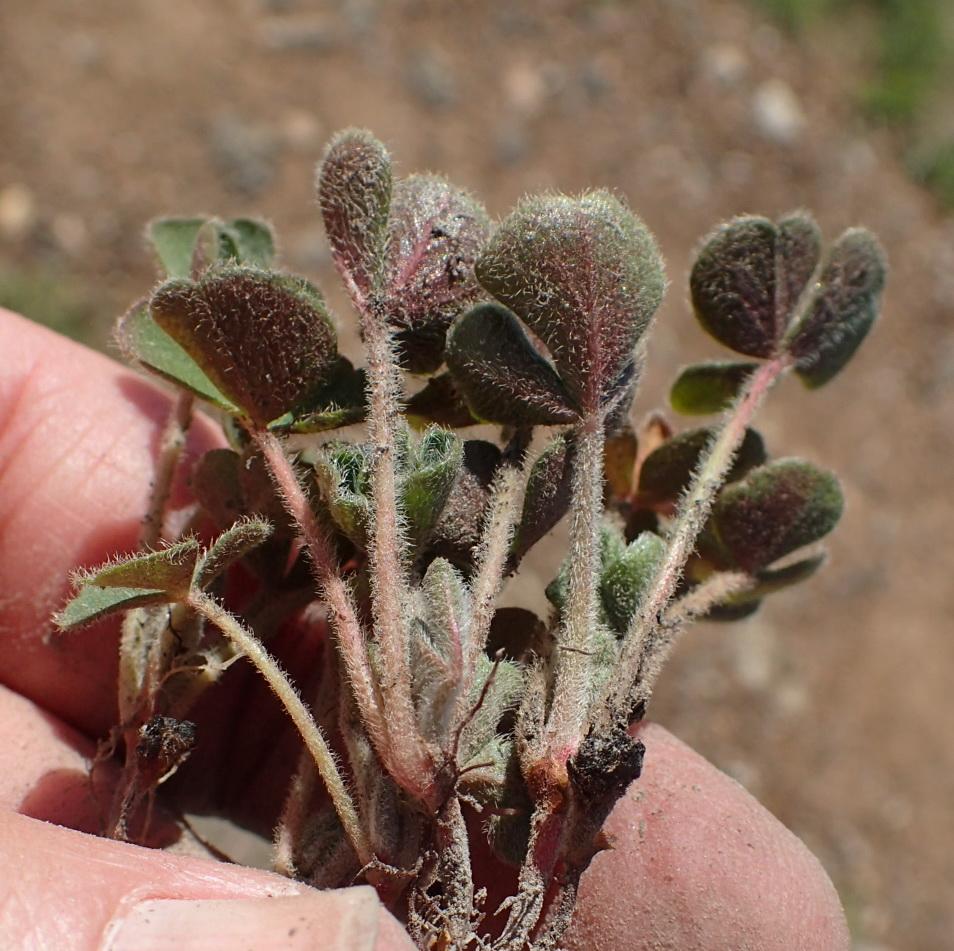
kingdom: Plantae
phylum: Tracheophyta
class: Magnoliopsida
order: Oxalidales
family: Oxalidaceae
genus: Oxalis
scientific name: Oxalis imbricata
